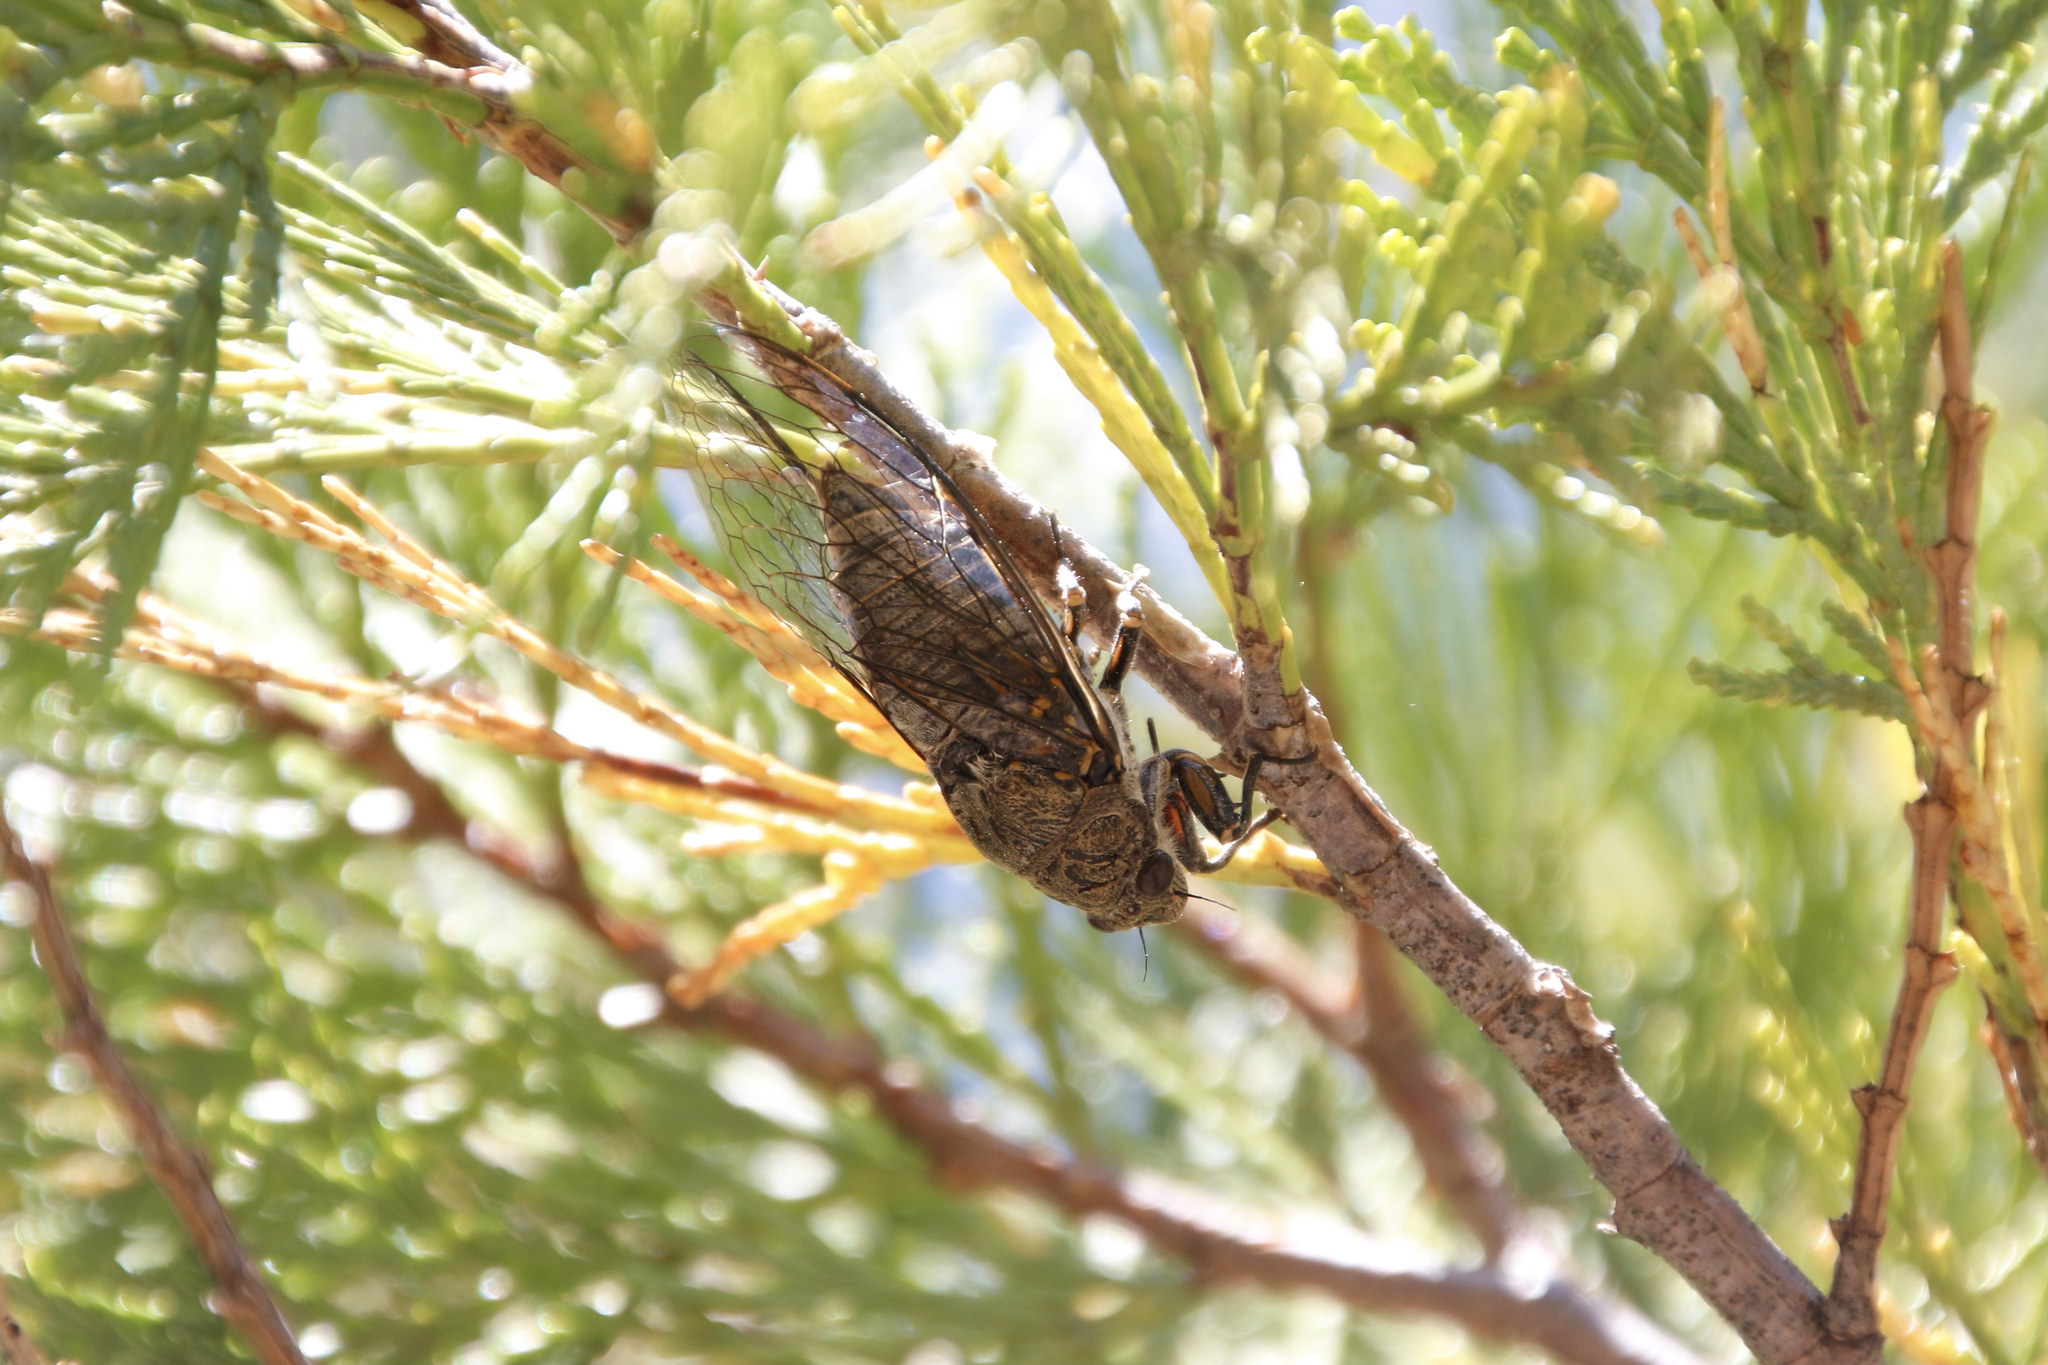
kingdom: Animalia
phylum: Arthropoda
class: Insecta
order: Hemiptera
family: Cicadidae
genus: Okanagana
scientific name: Okanagana tristis
